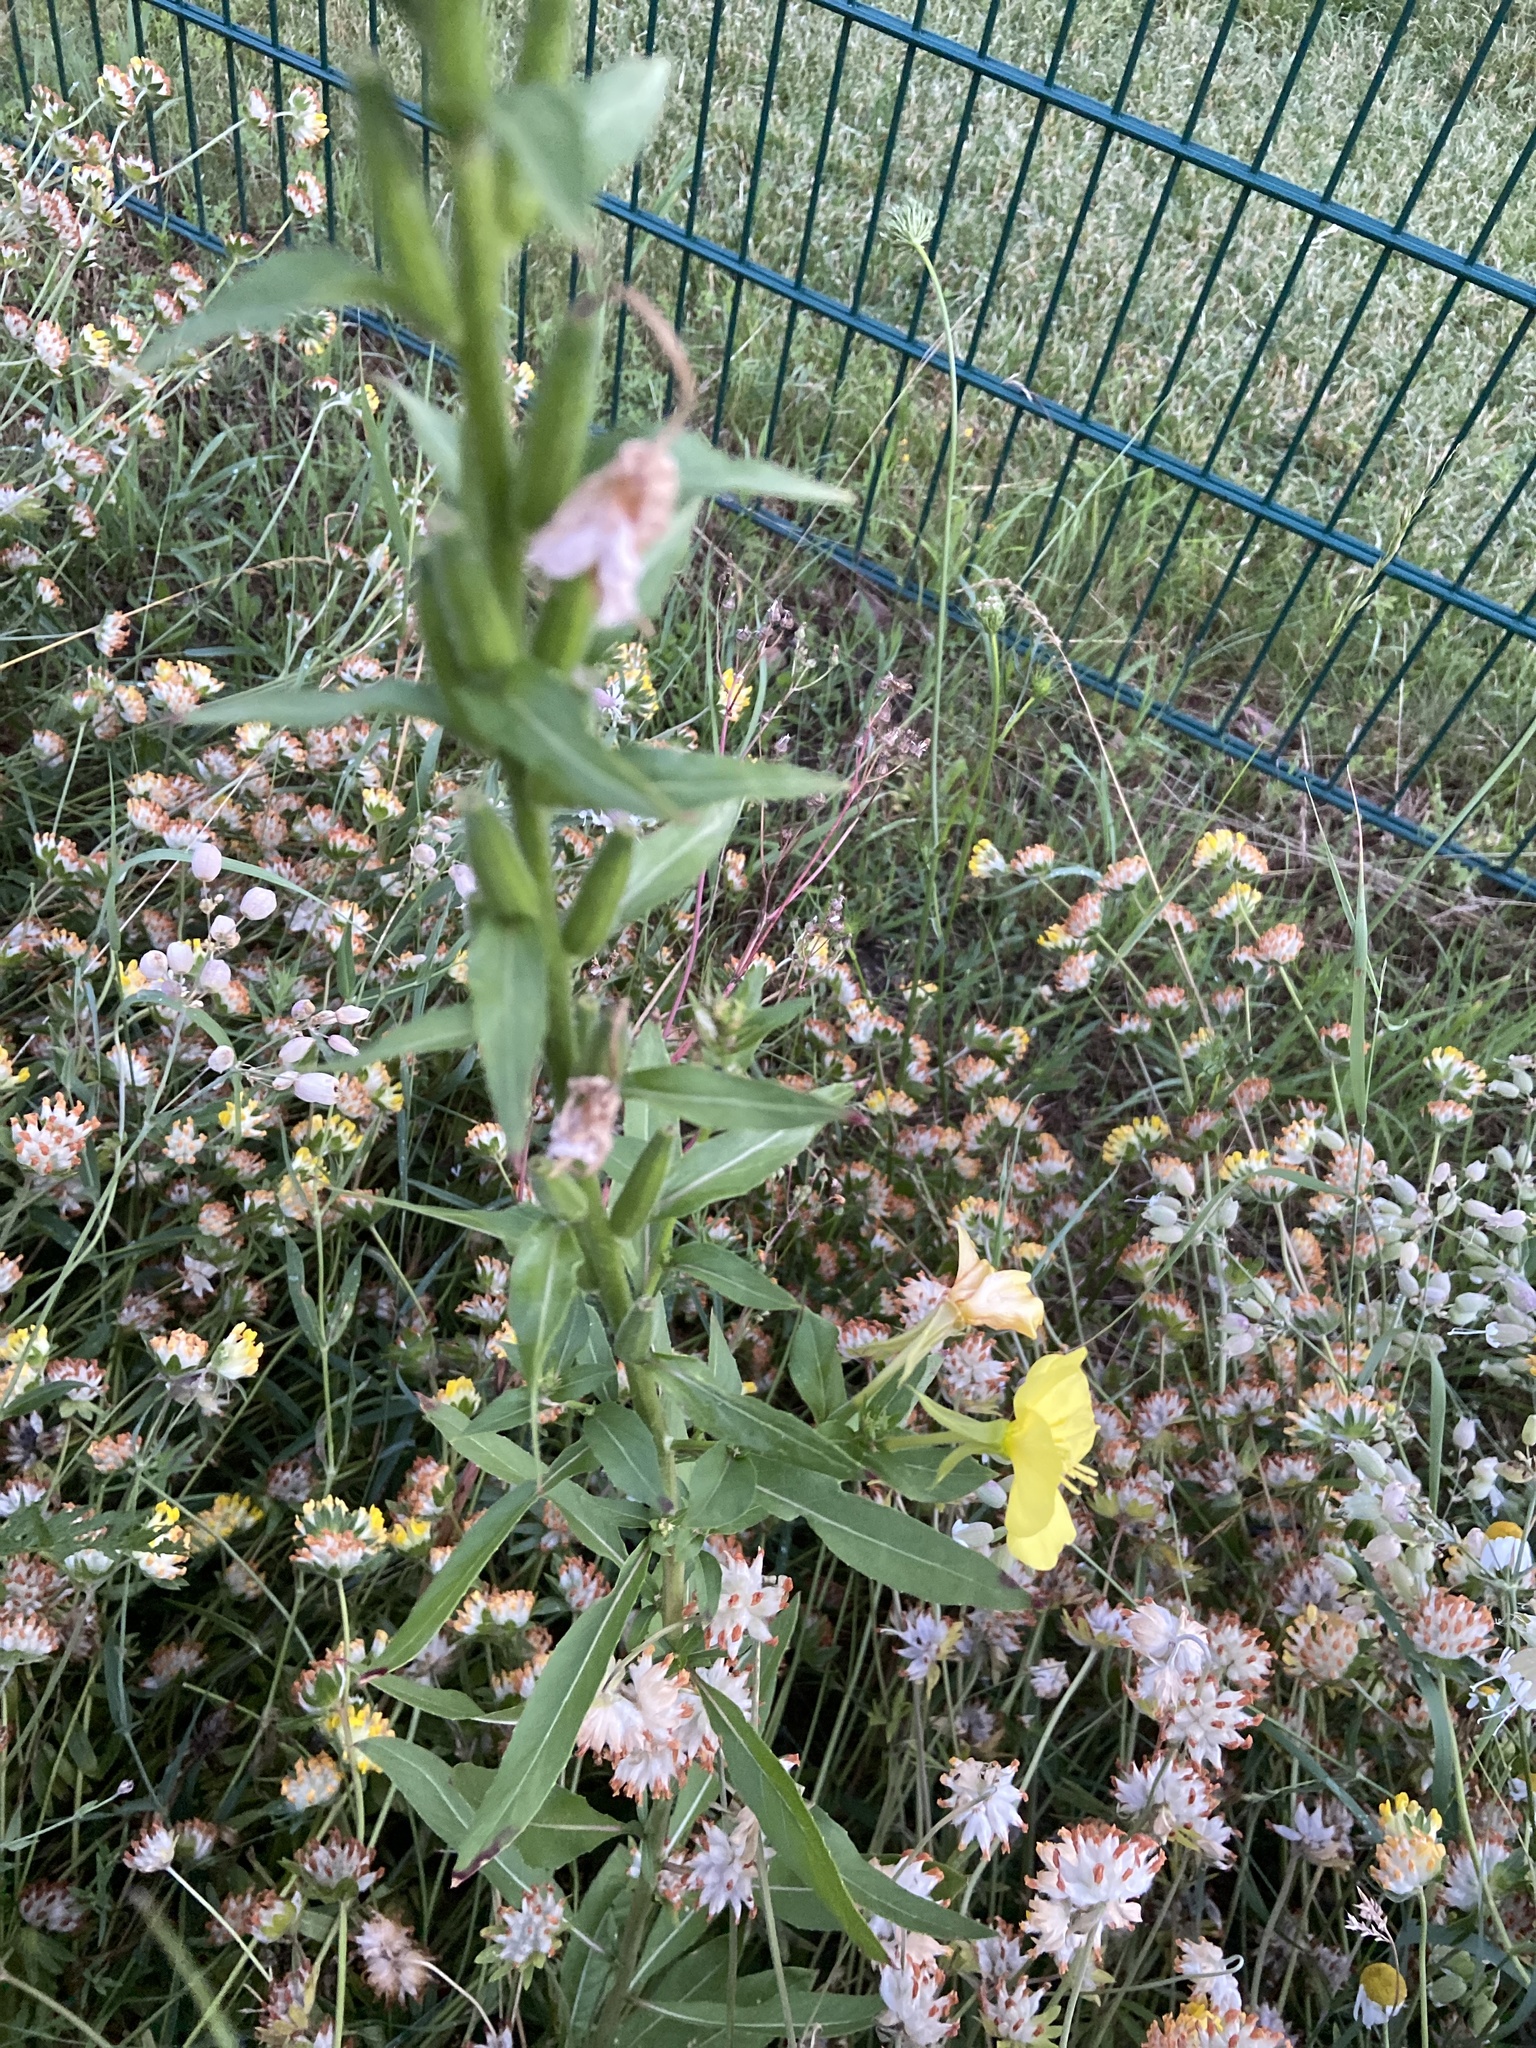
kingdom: Plantae
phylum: Tracheophyta
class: Magnoliopsida
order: Myrtales
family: Onagraceae
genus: Oenothera
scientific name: Oenothera biennis
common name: Common evening-primrose
